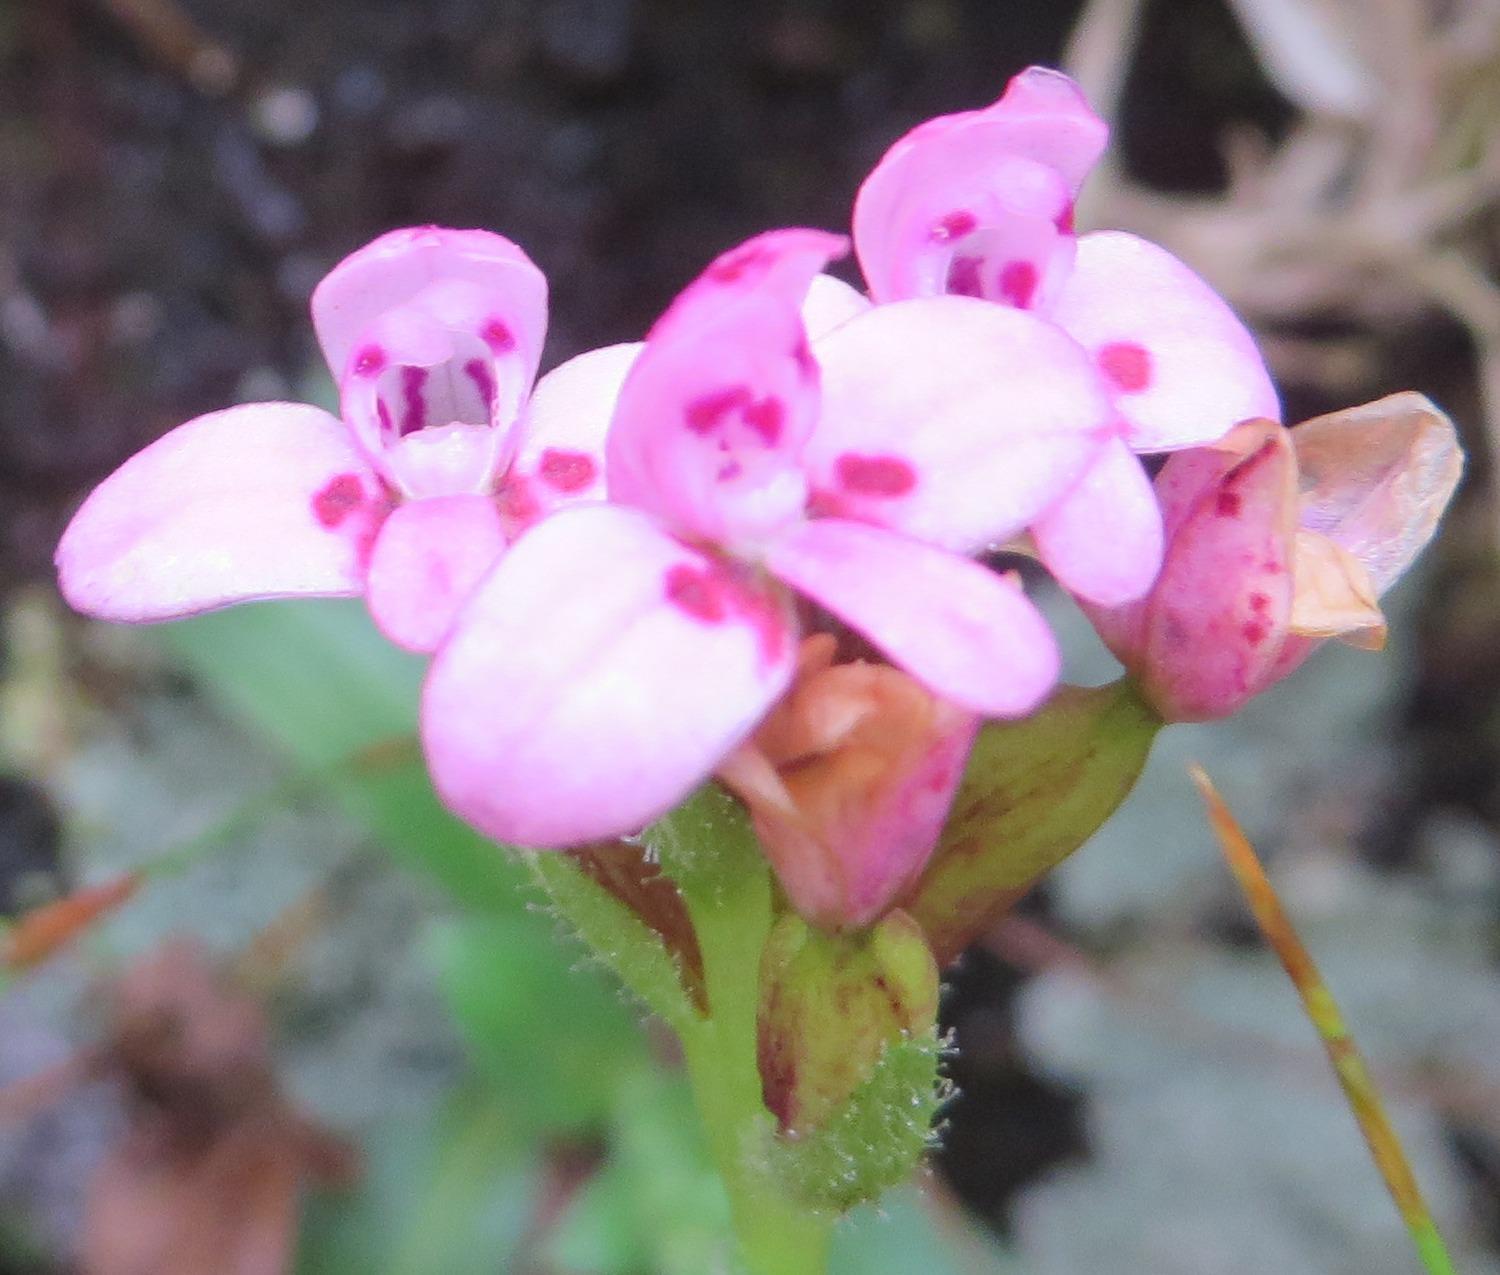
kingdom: Plantae
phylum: Tracheophyta
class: Liliopsida
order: Asparagales
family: Orchidaceae
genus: Disa
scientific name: Disa glandulosa
